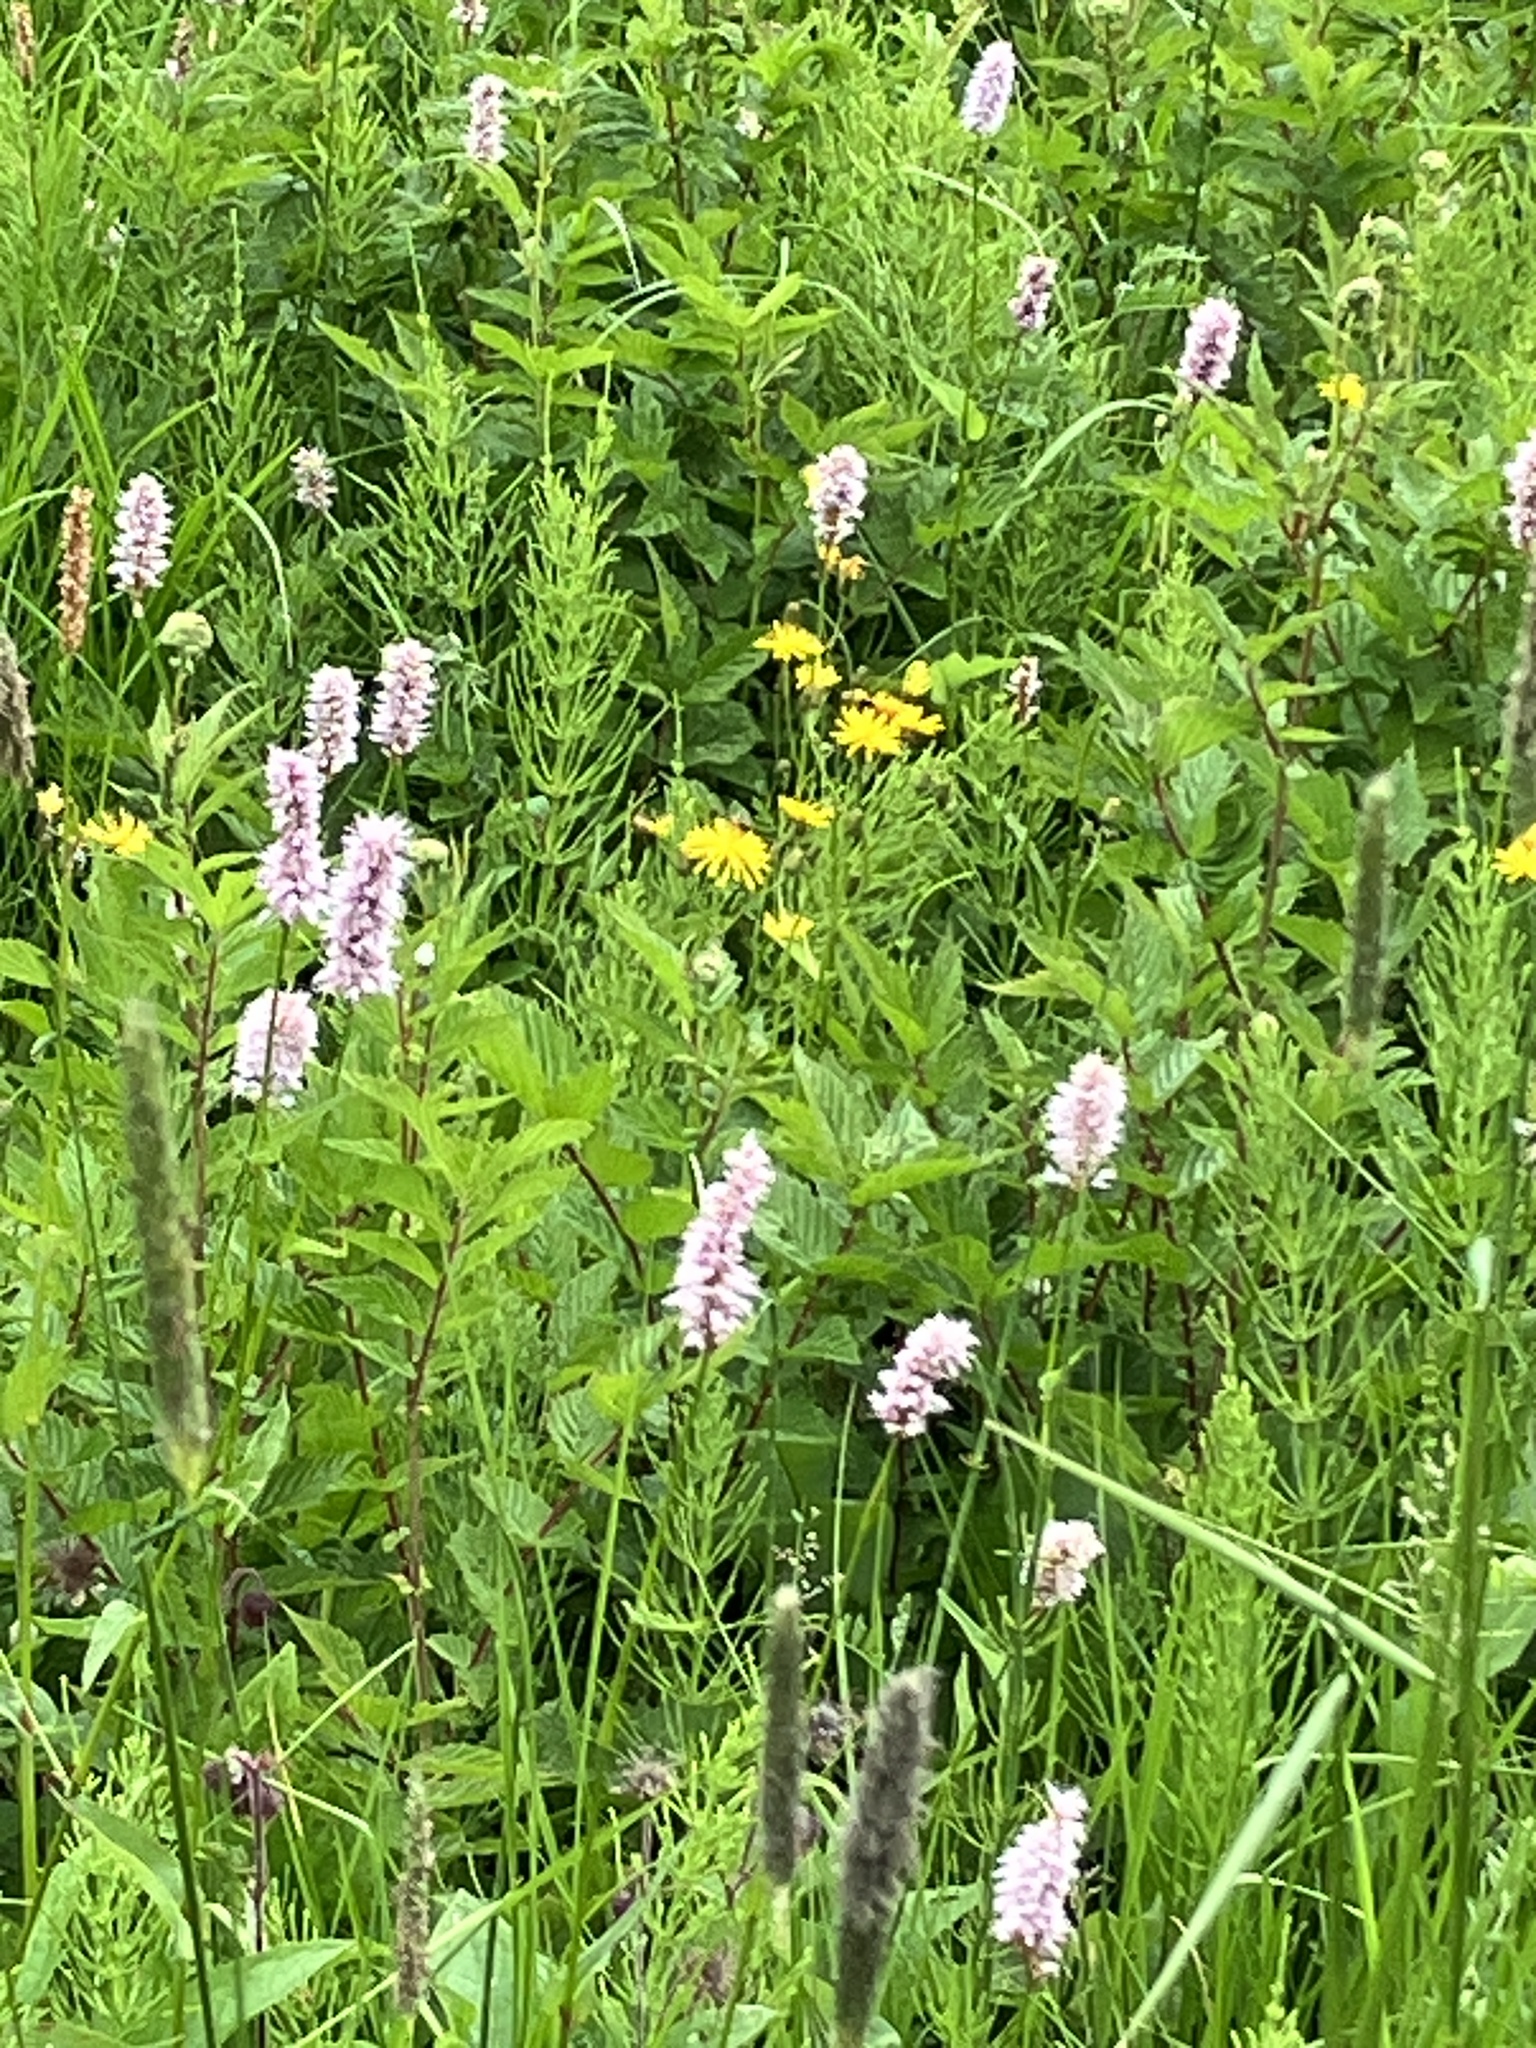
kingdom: Plantae
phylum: Tracheophyta
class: Magnoliopsida
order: Caryophyllales
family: Polygonaceae
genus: Bistorta
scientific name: Bistorta officinalis
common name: Common bistort
